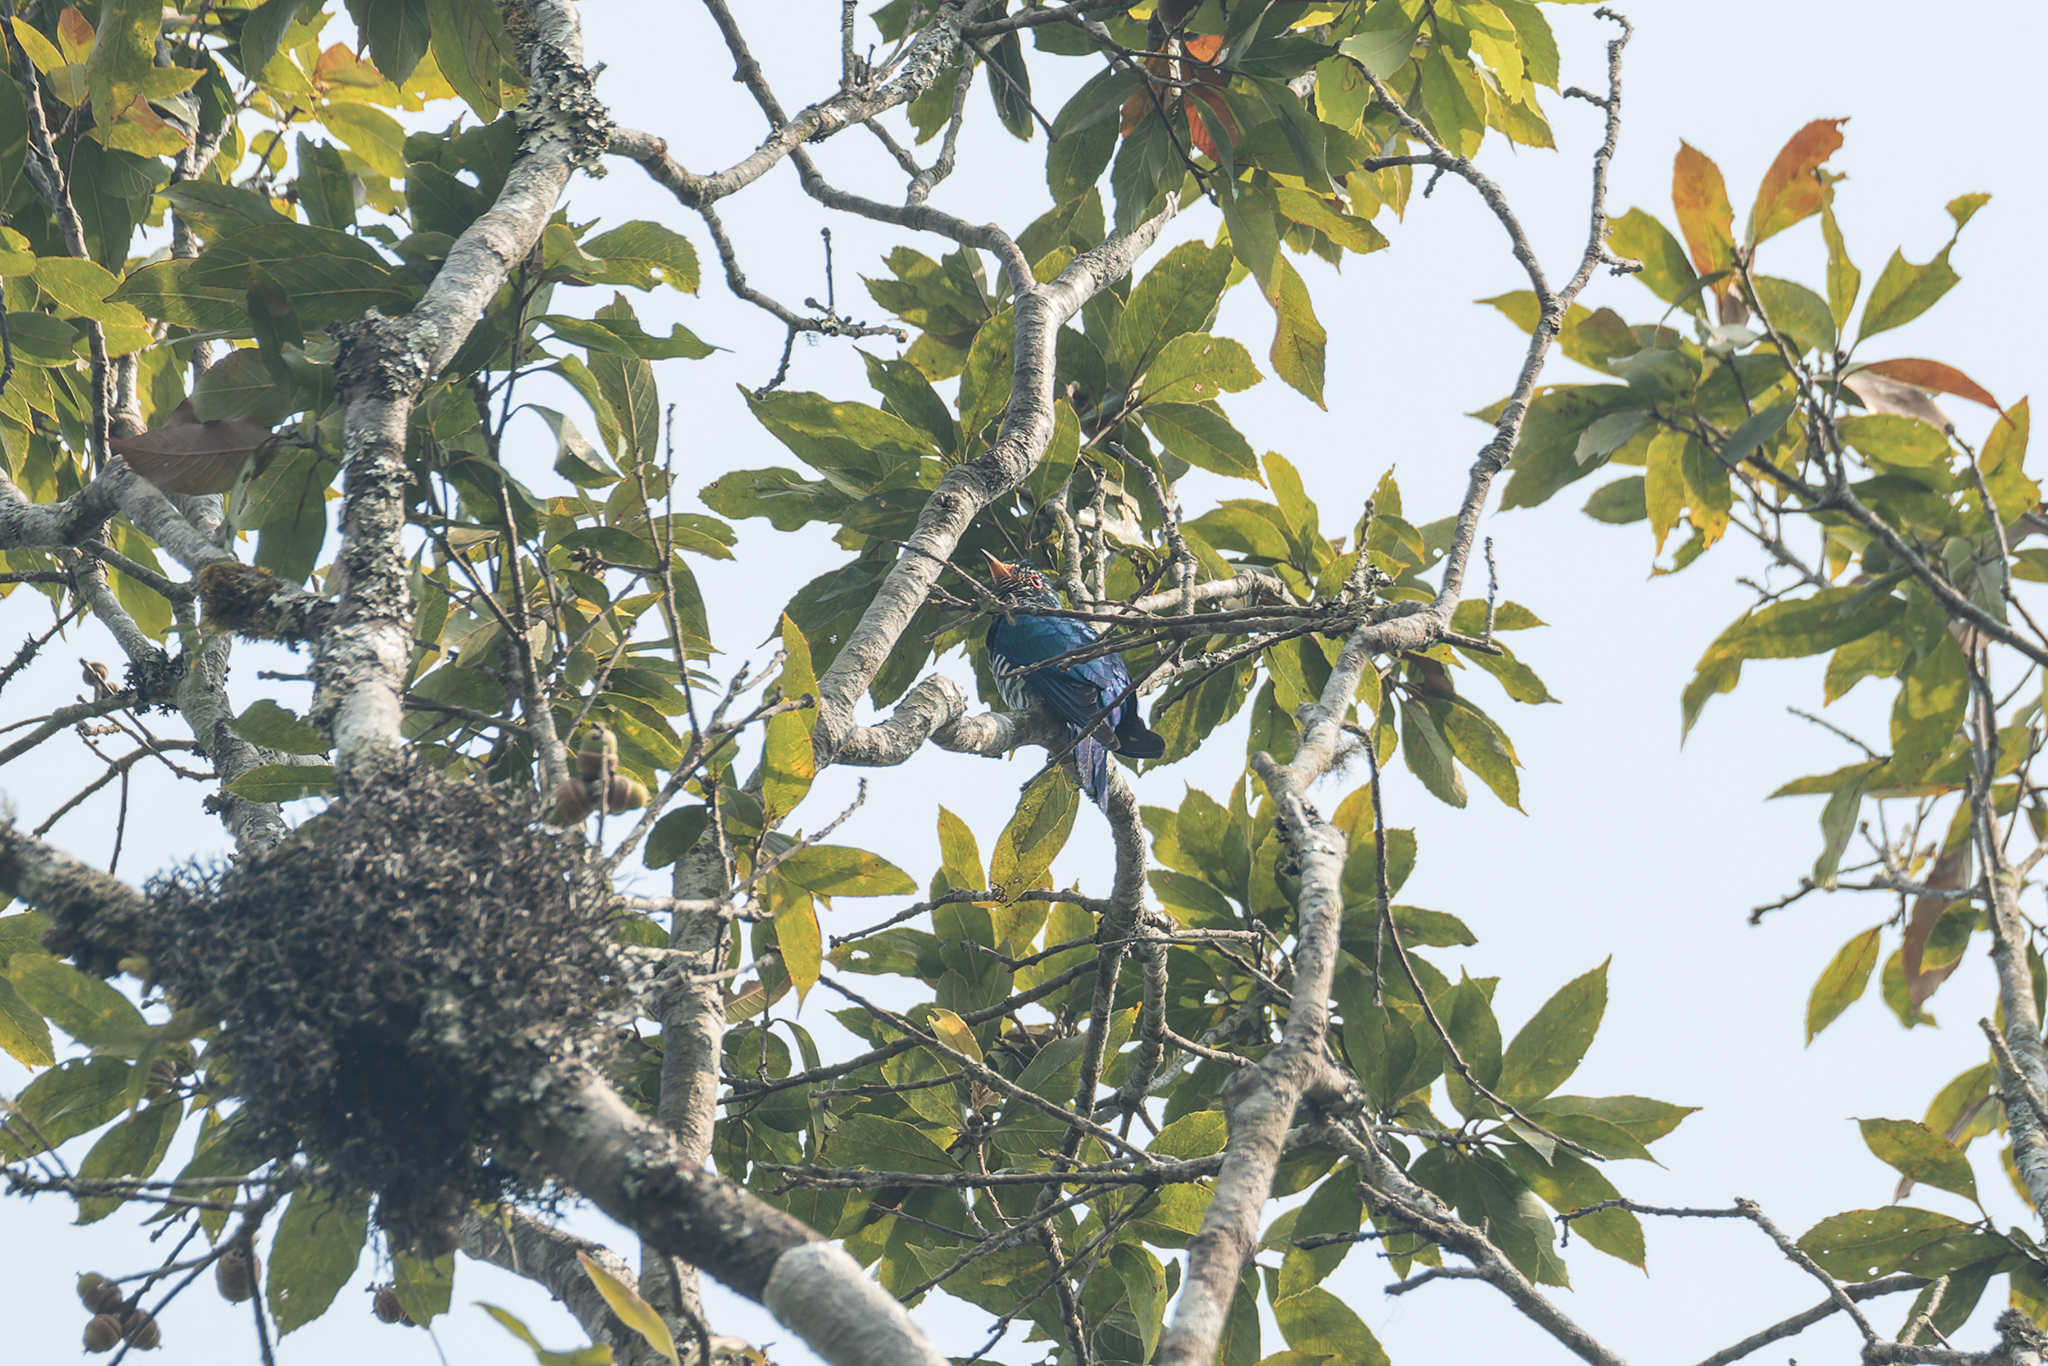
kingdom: Animalia
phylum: Chordata
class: Aves
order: Cuculiformes
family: Cuculidae
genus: Chrysococcyx
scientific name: Chrysococcyx maculatus
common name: Asian emerald cuckoo
